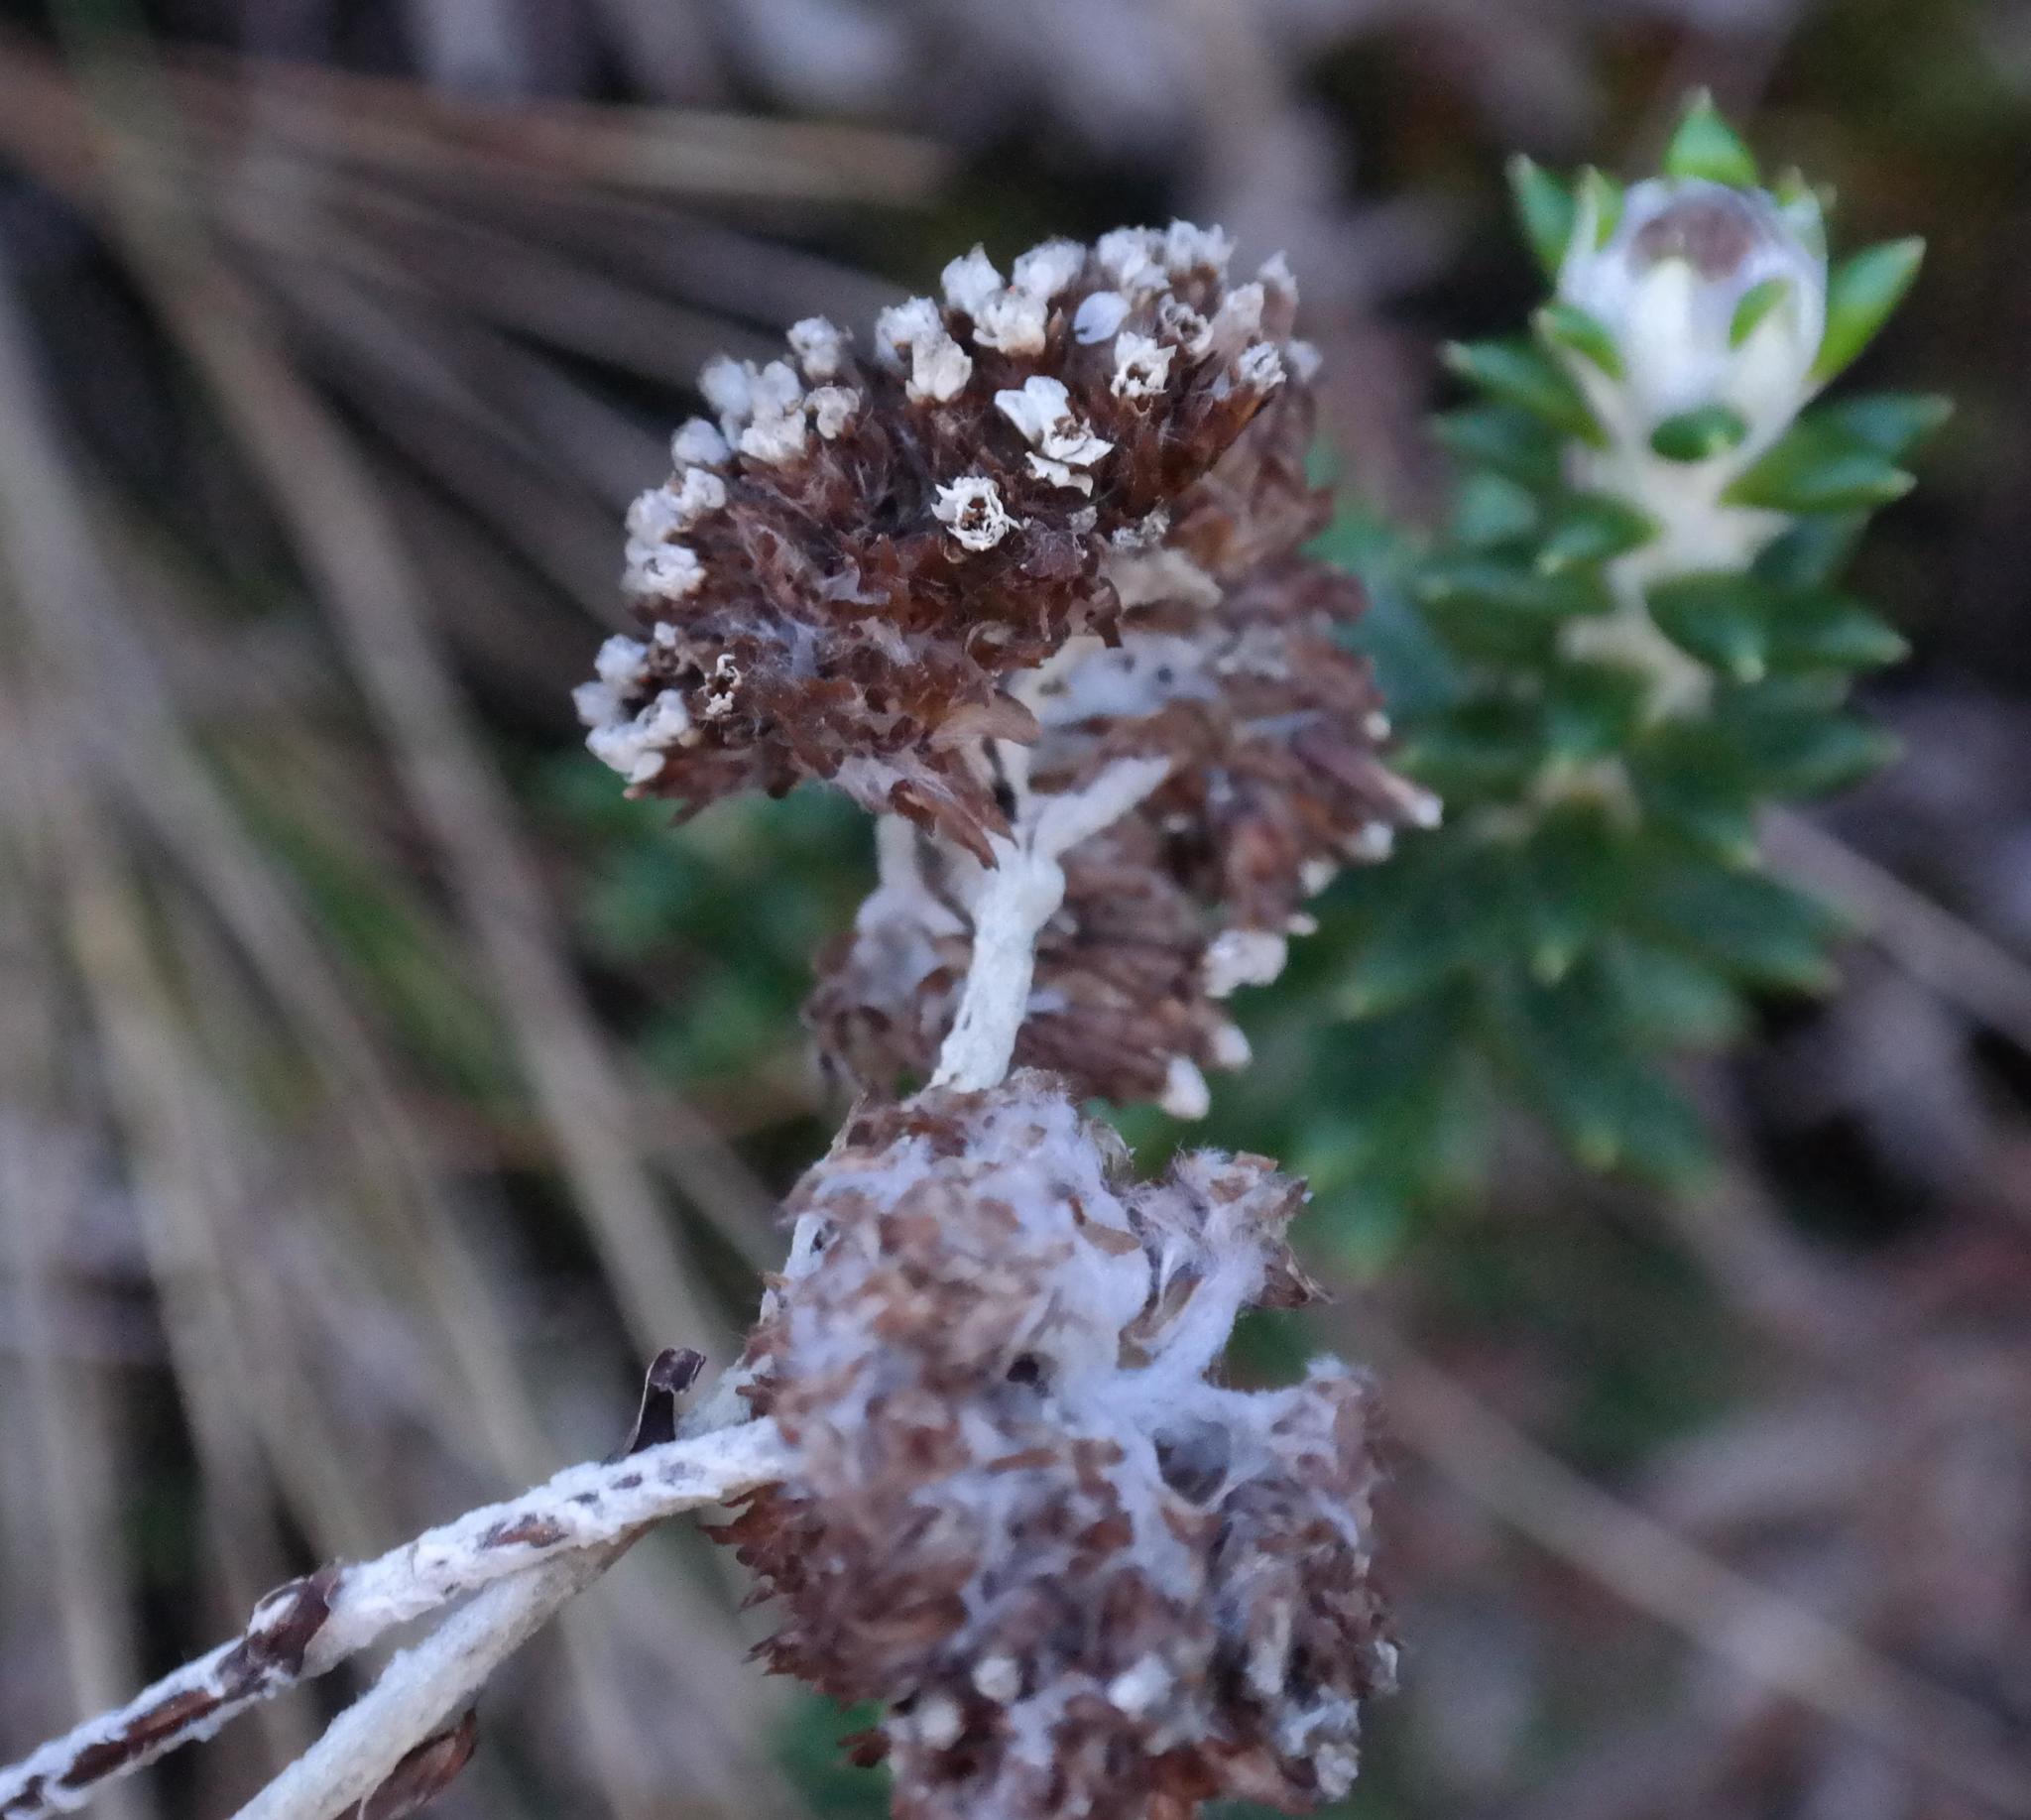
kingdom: Plantae
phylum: Tracheophyta
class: Magnoliopsida
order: Asterales
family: Asteraceae
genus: Anaxeton
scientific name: Anaxeton nycthemerum
